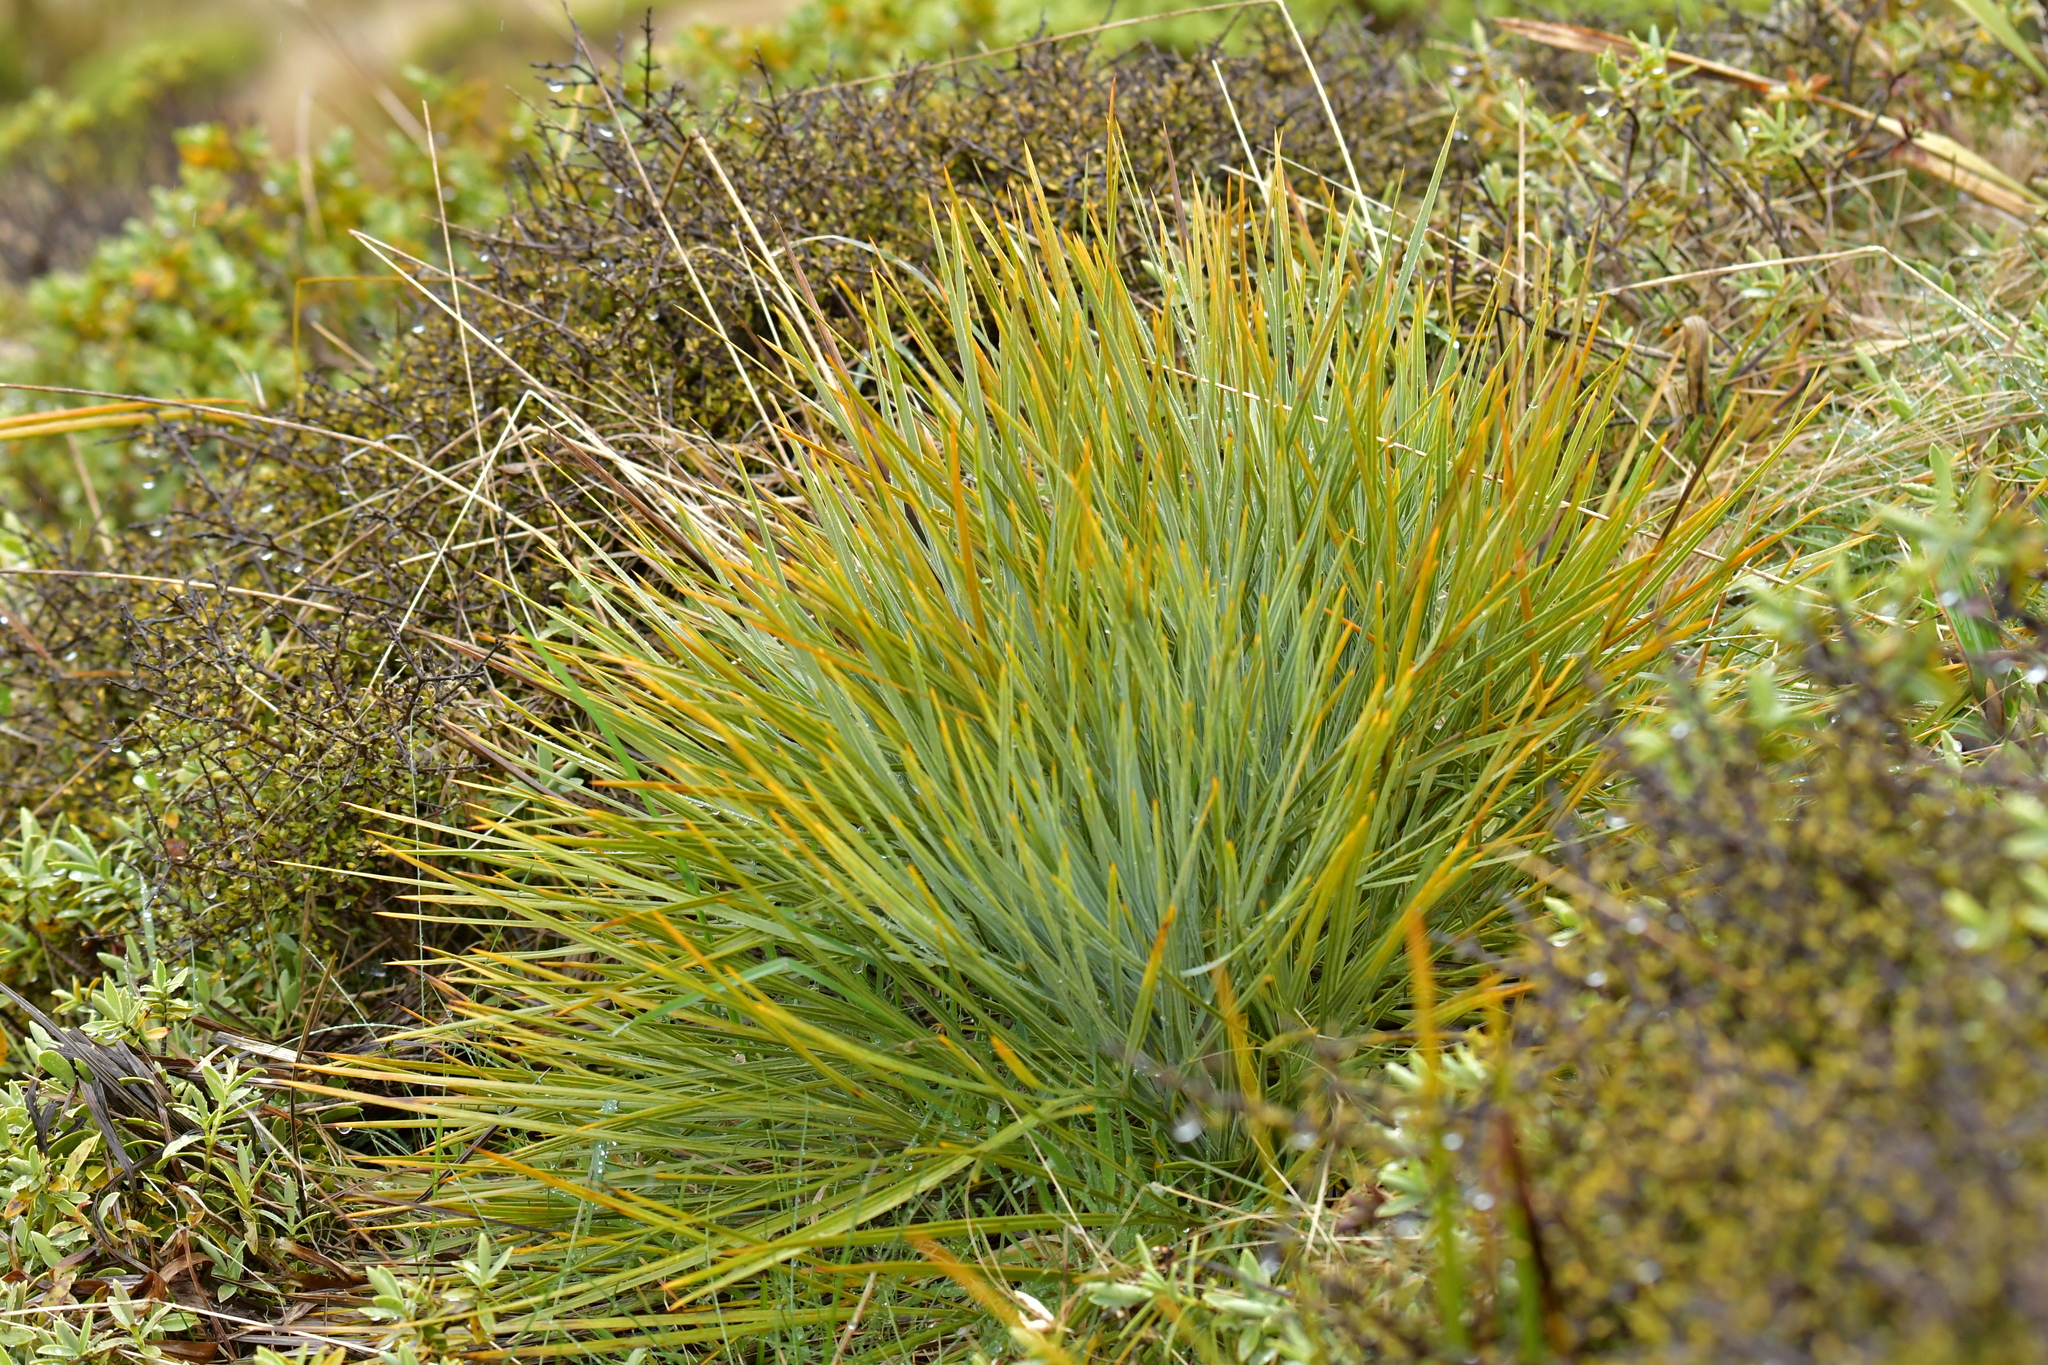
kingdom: Plantae
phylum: Tracheophyta
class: Magnoliopsida
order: Apiales
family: Apiaceae
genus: Aciphylla
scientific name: Aciphylla glaucescens
